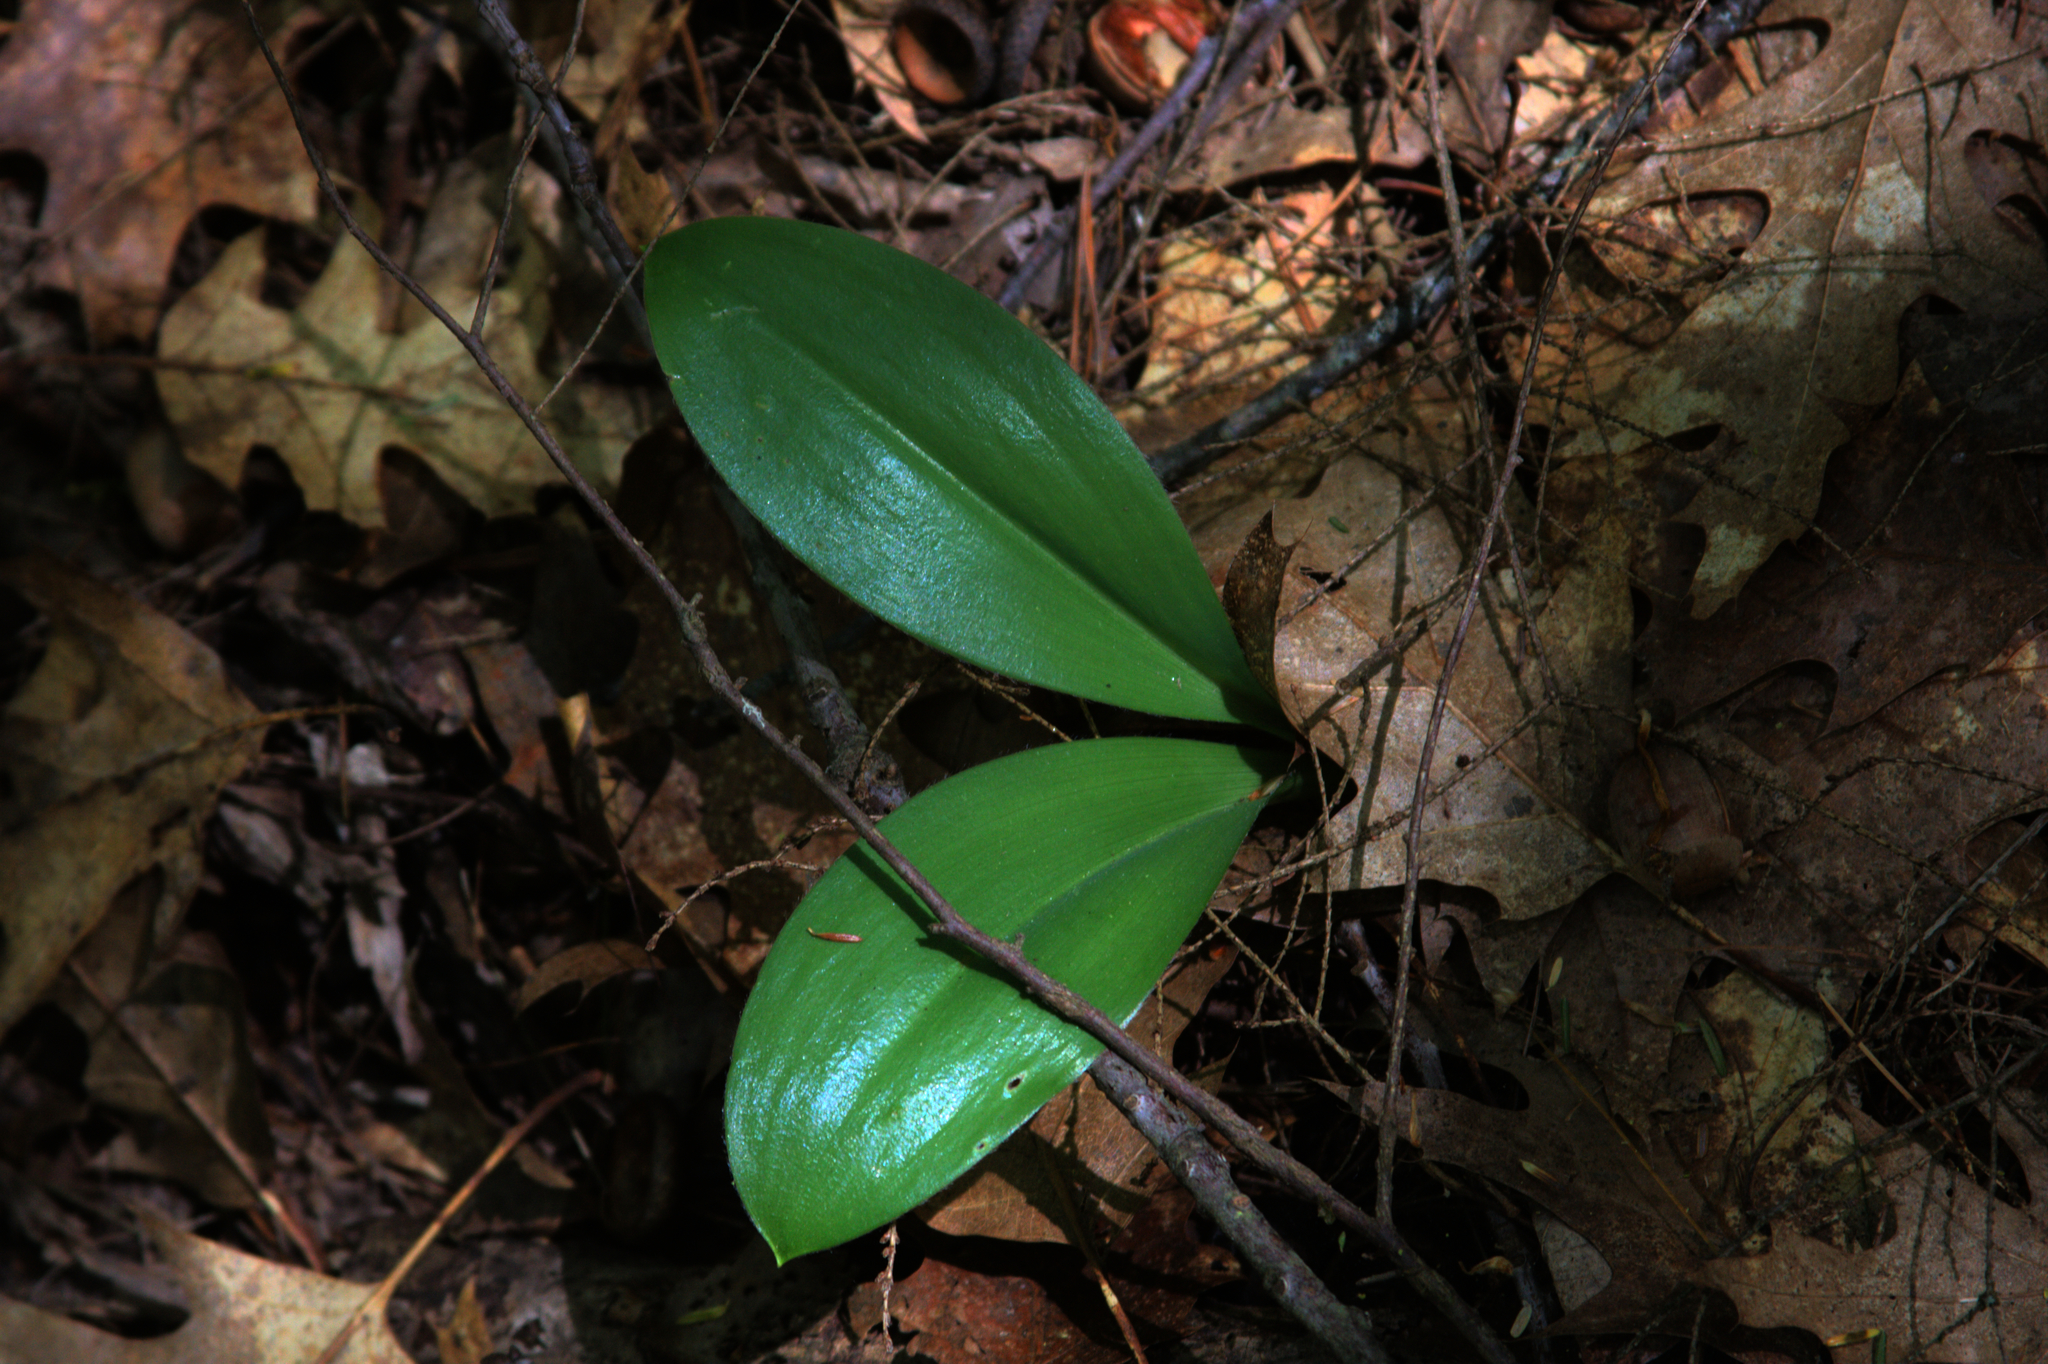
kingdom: Plantae
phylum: Tracheophyta
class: Liliopsida
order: Liliales
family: Liliaceae
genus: Clintonia
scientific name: Clintonia borealis
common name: Yellow clintonia
